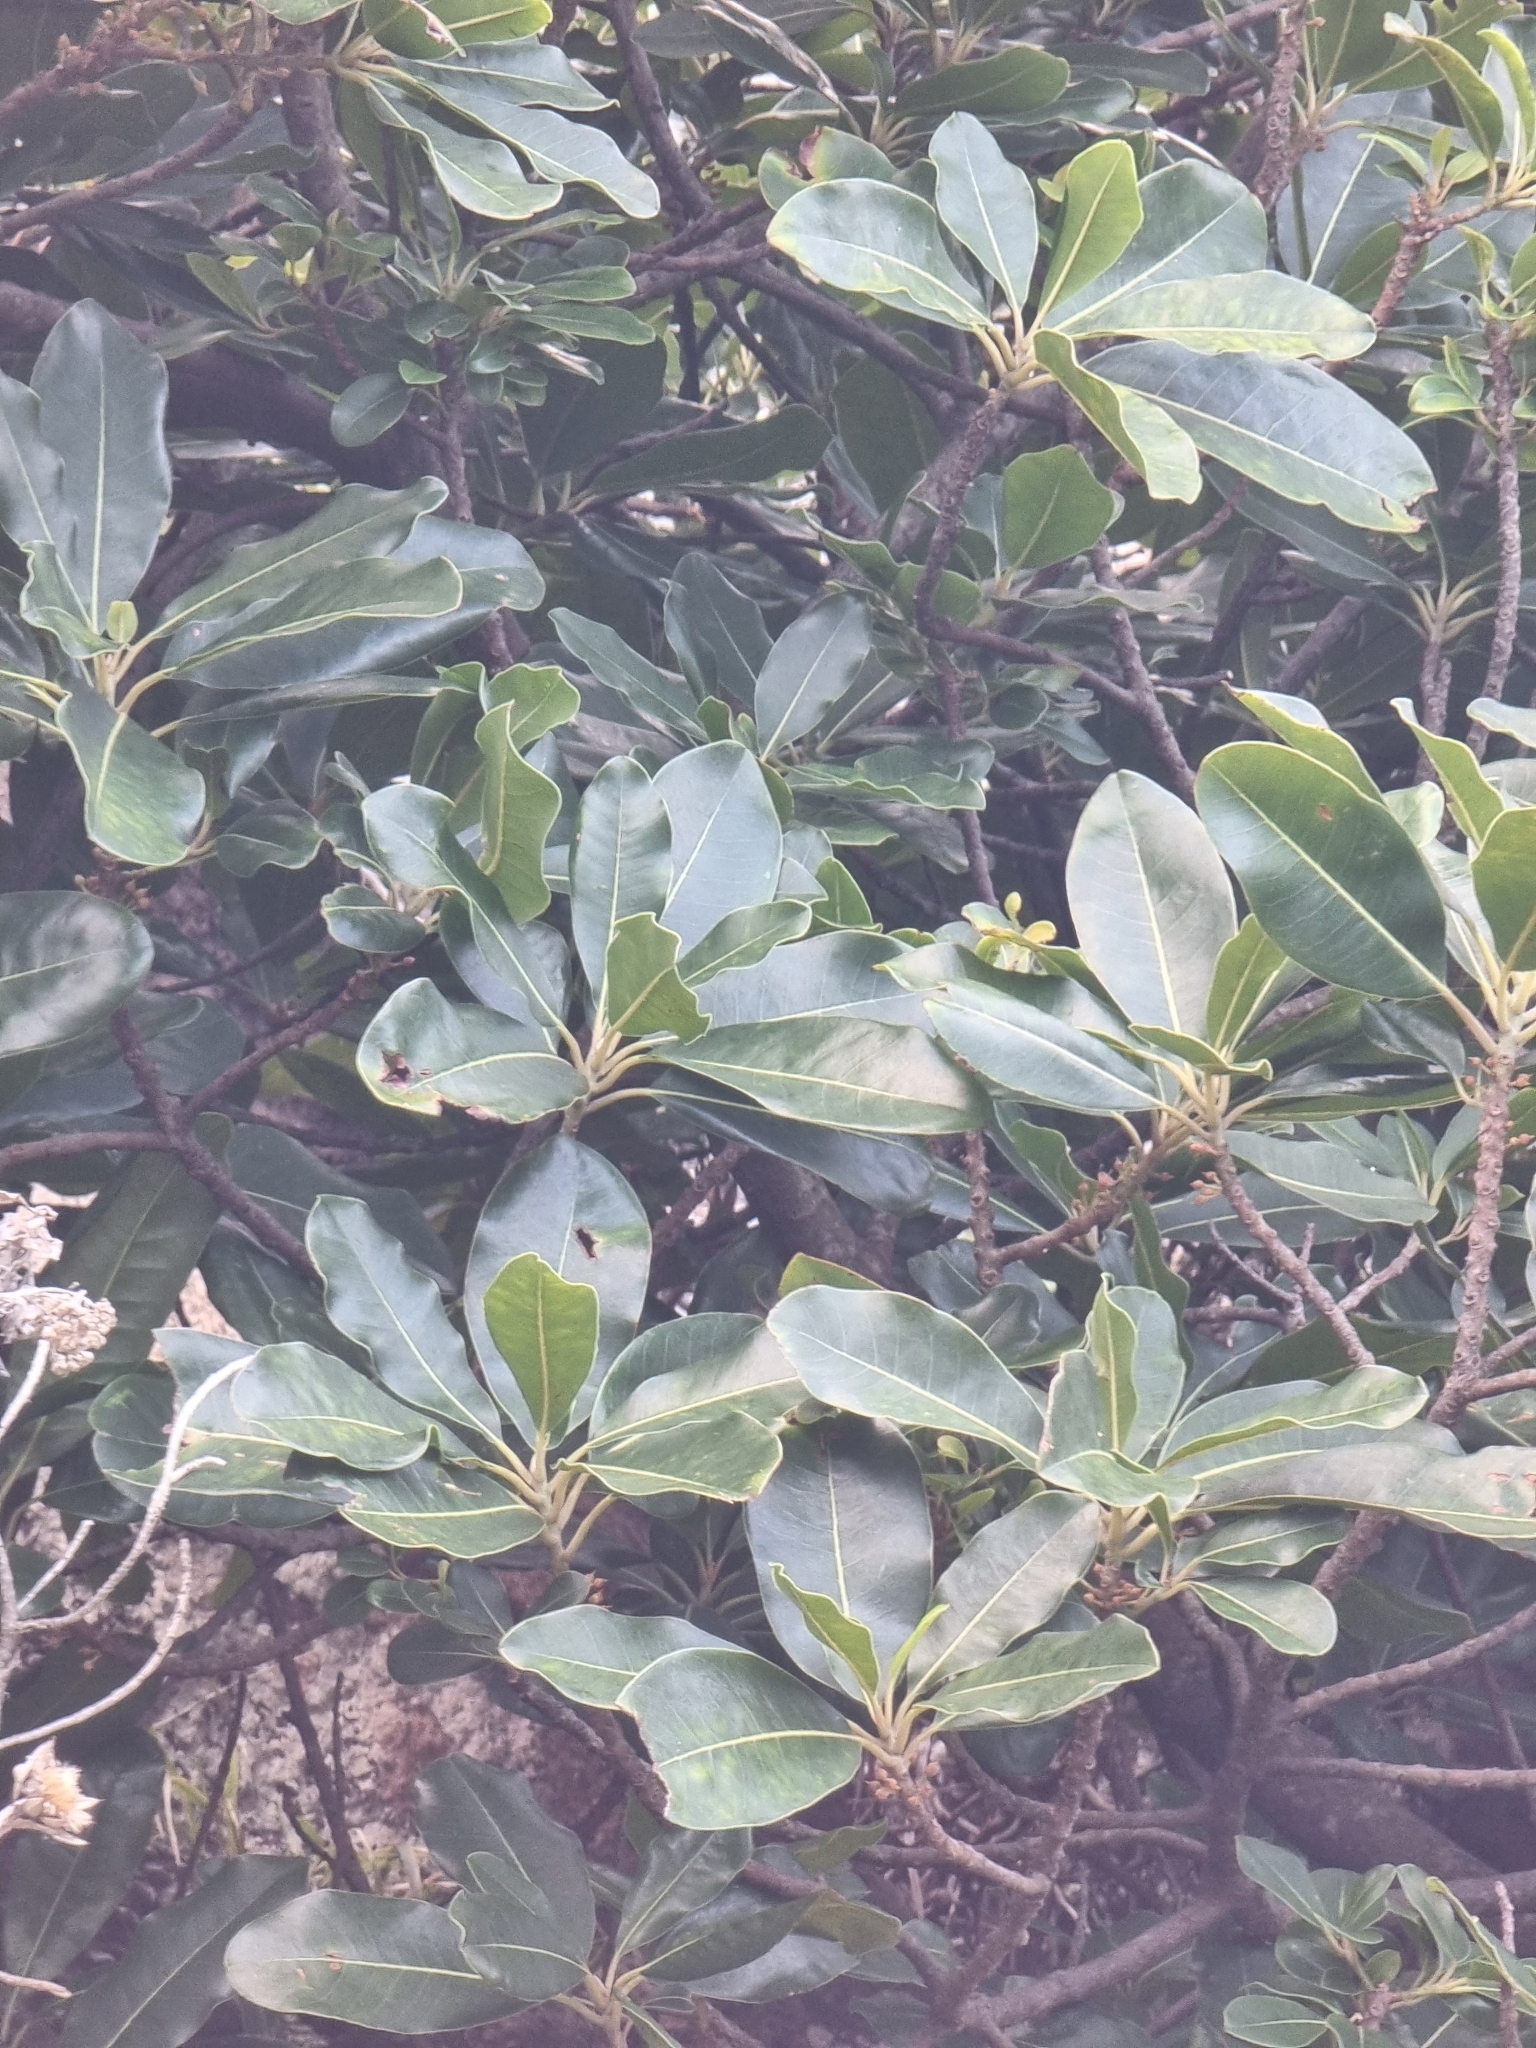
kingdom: Plantae
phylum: Tracheophyta
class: Magnoliopsida
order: Ericales
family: Sapotaceae
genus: Sideroxylon
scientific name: Sideroxylon mirmulans
